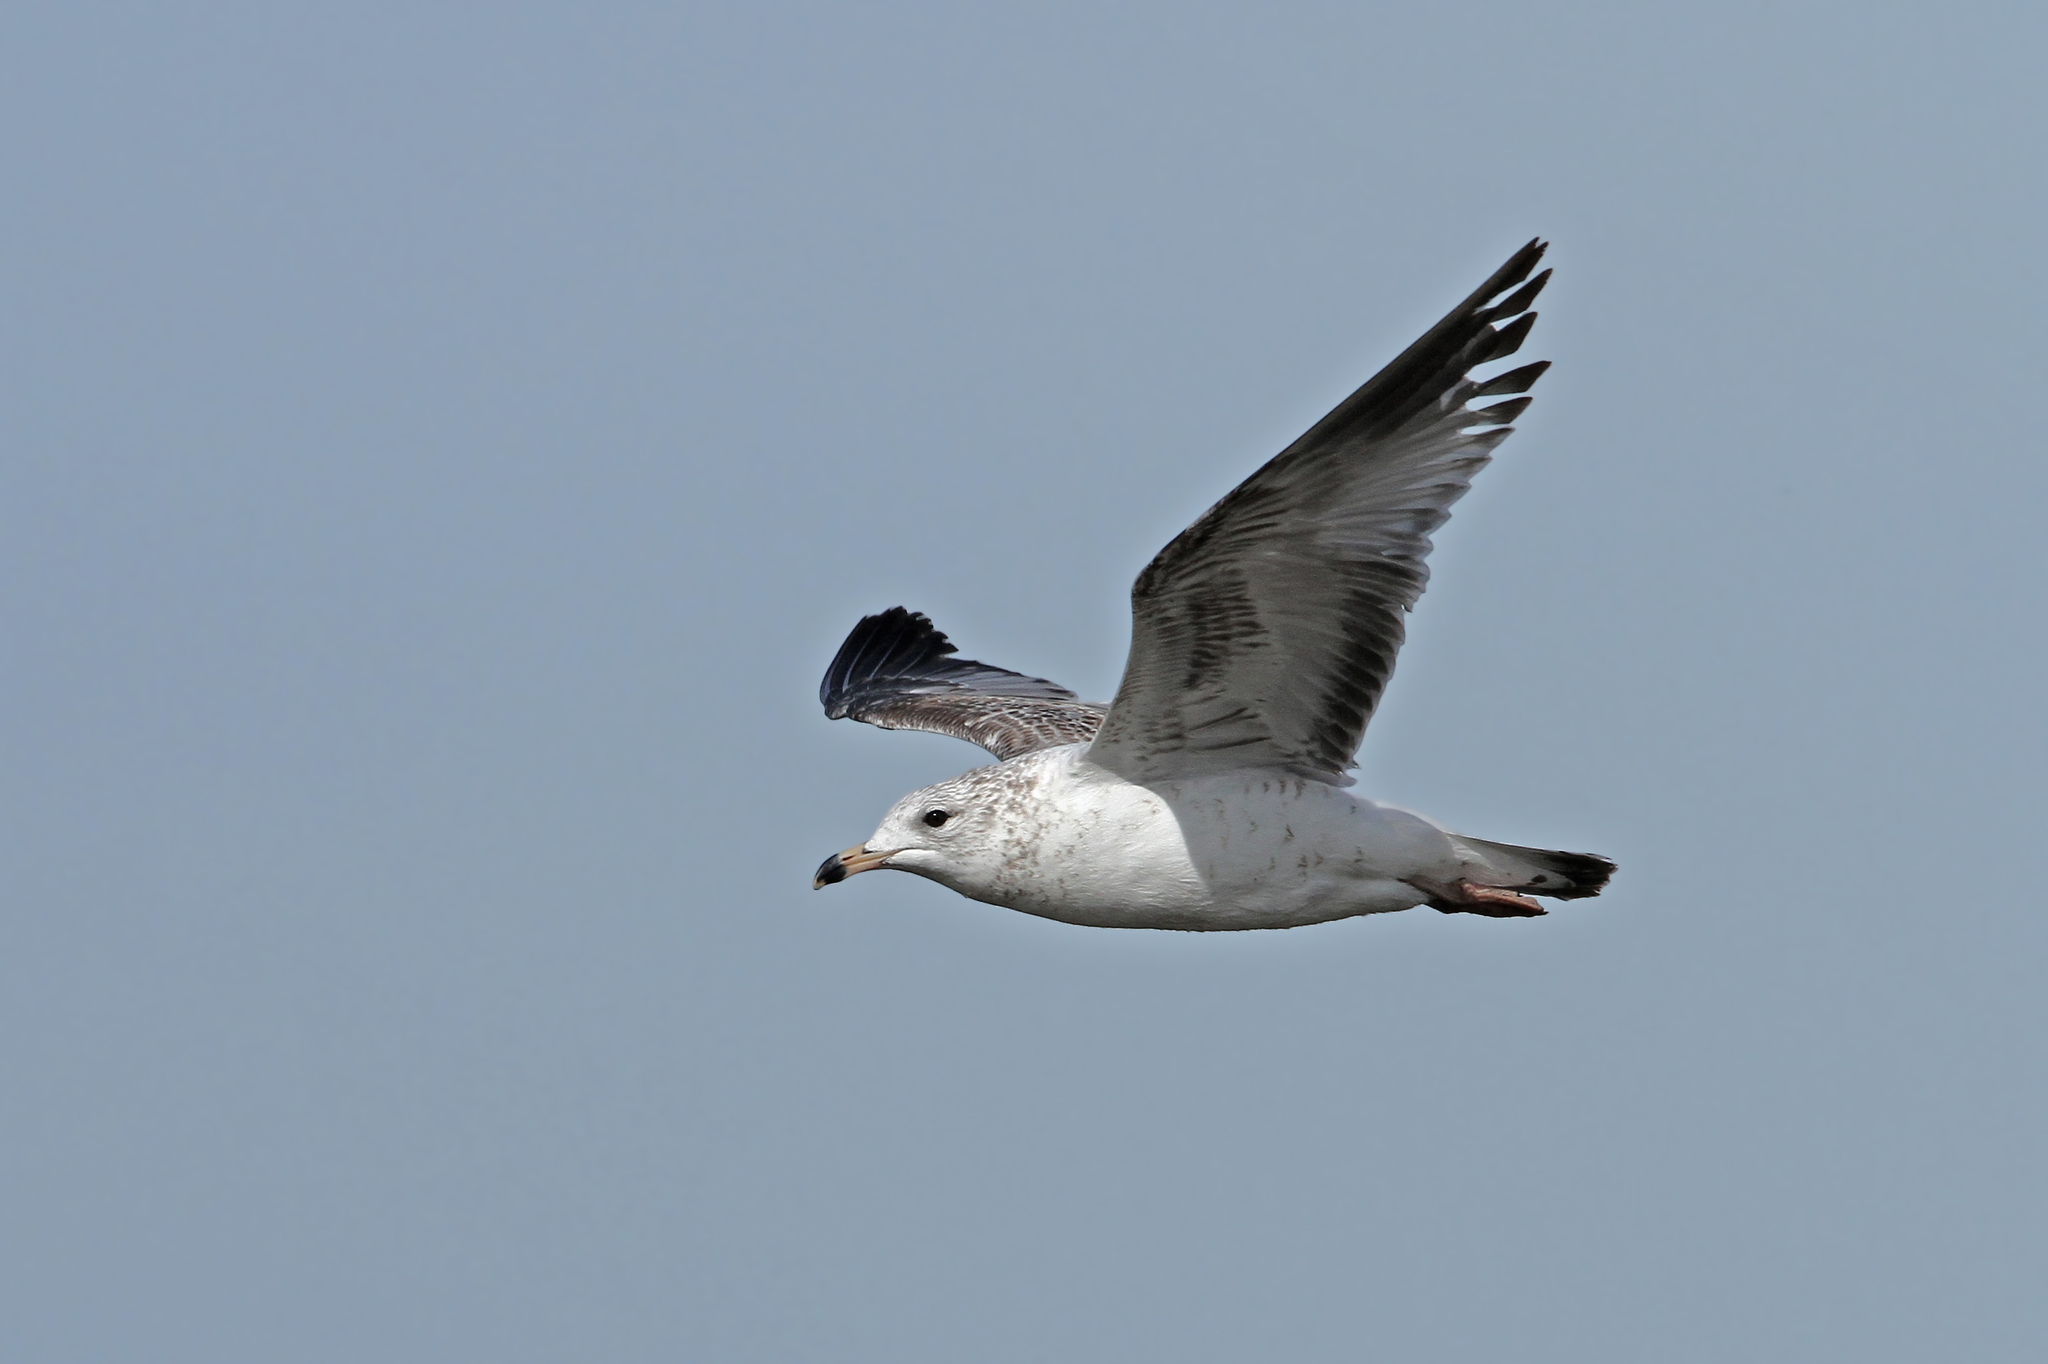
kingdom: Animalia
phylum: Chordata
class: Aves
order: Charadriiformes
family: Laridae
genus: Larus
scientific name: Larus delawarensis
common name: Ring-billed gull
